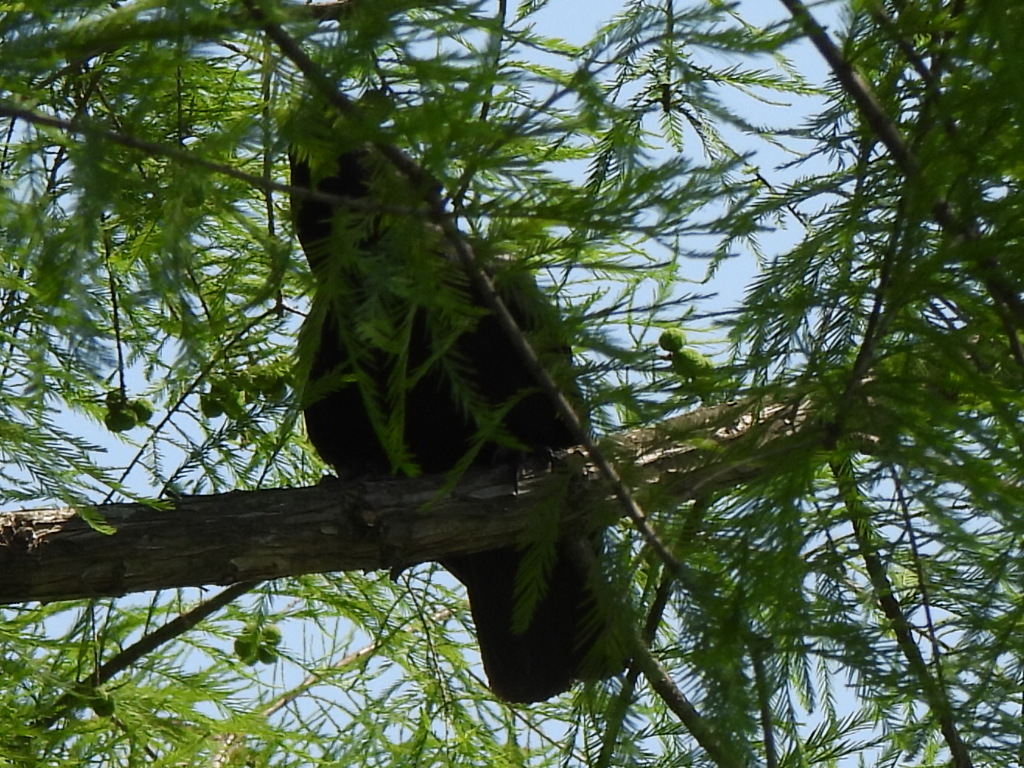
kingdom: Animalia
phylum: Chordata
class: Aves
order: Passeriformes
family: Corvidae
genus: Corvus
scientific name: Corvus ossifragus
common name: Fish crow
